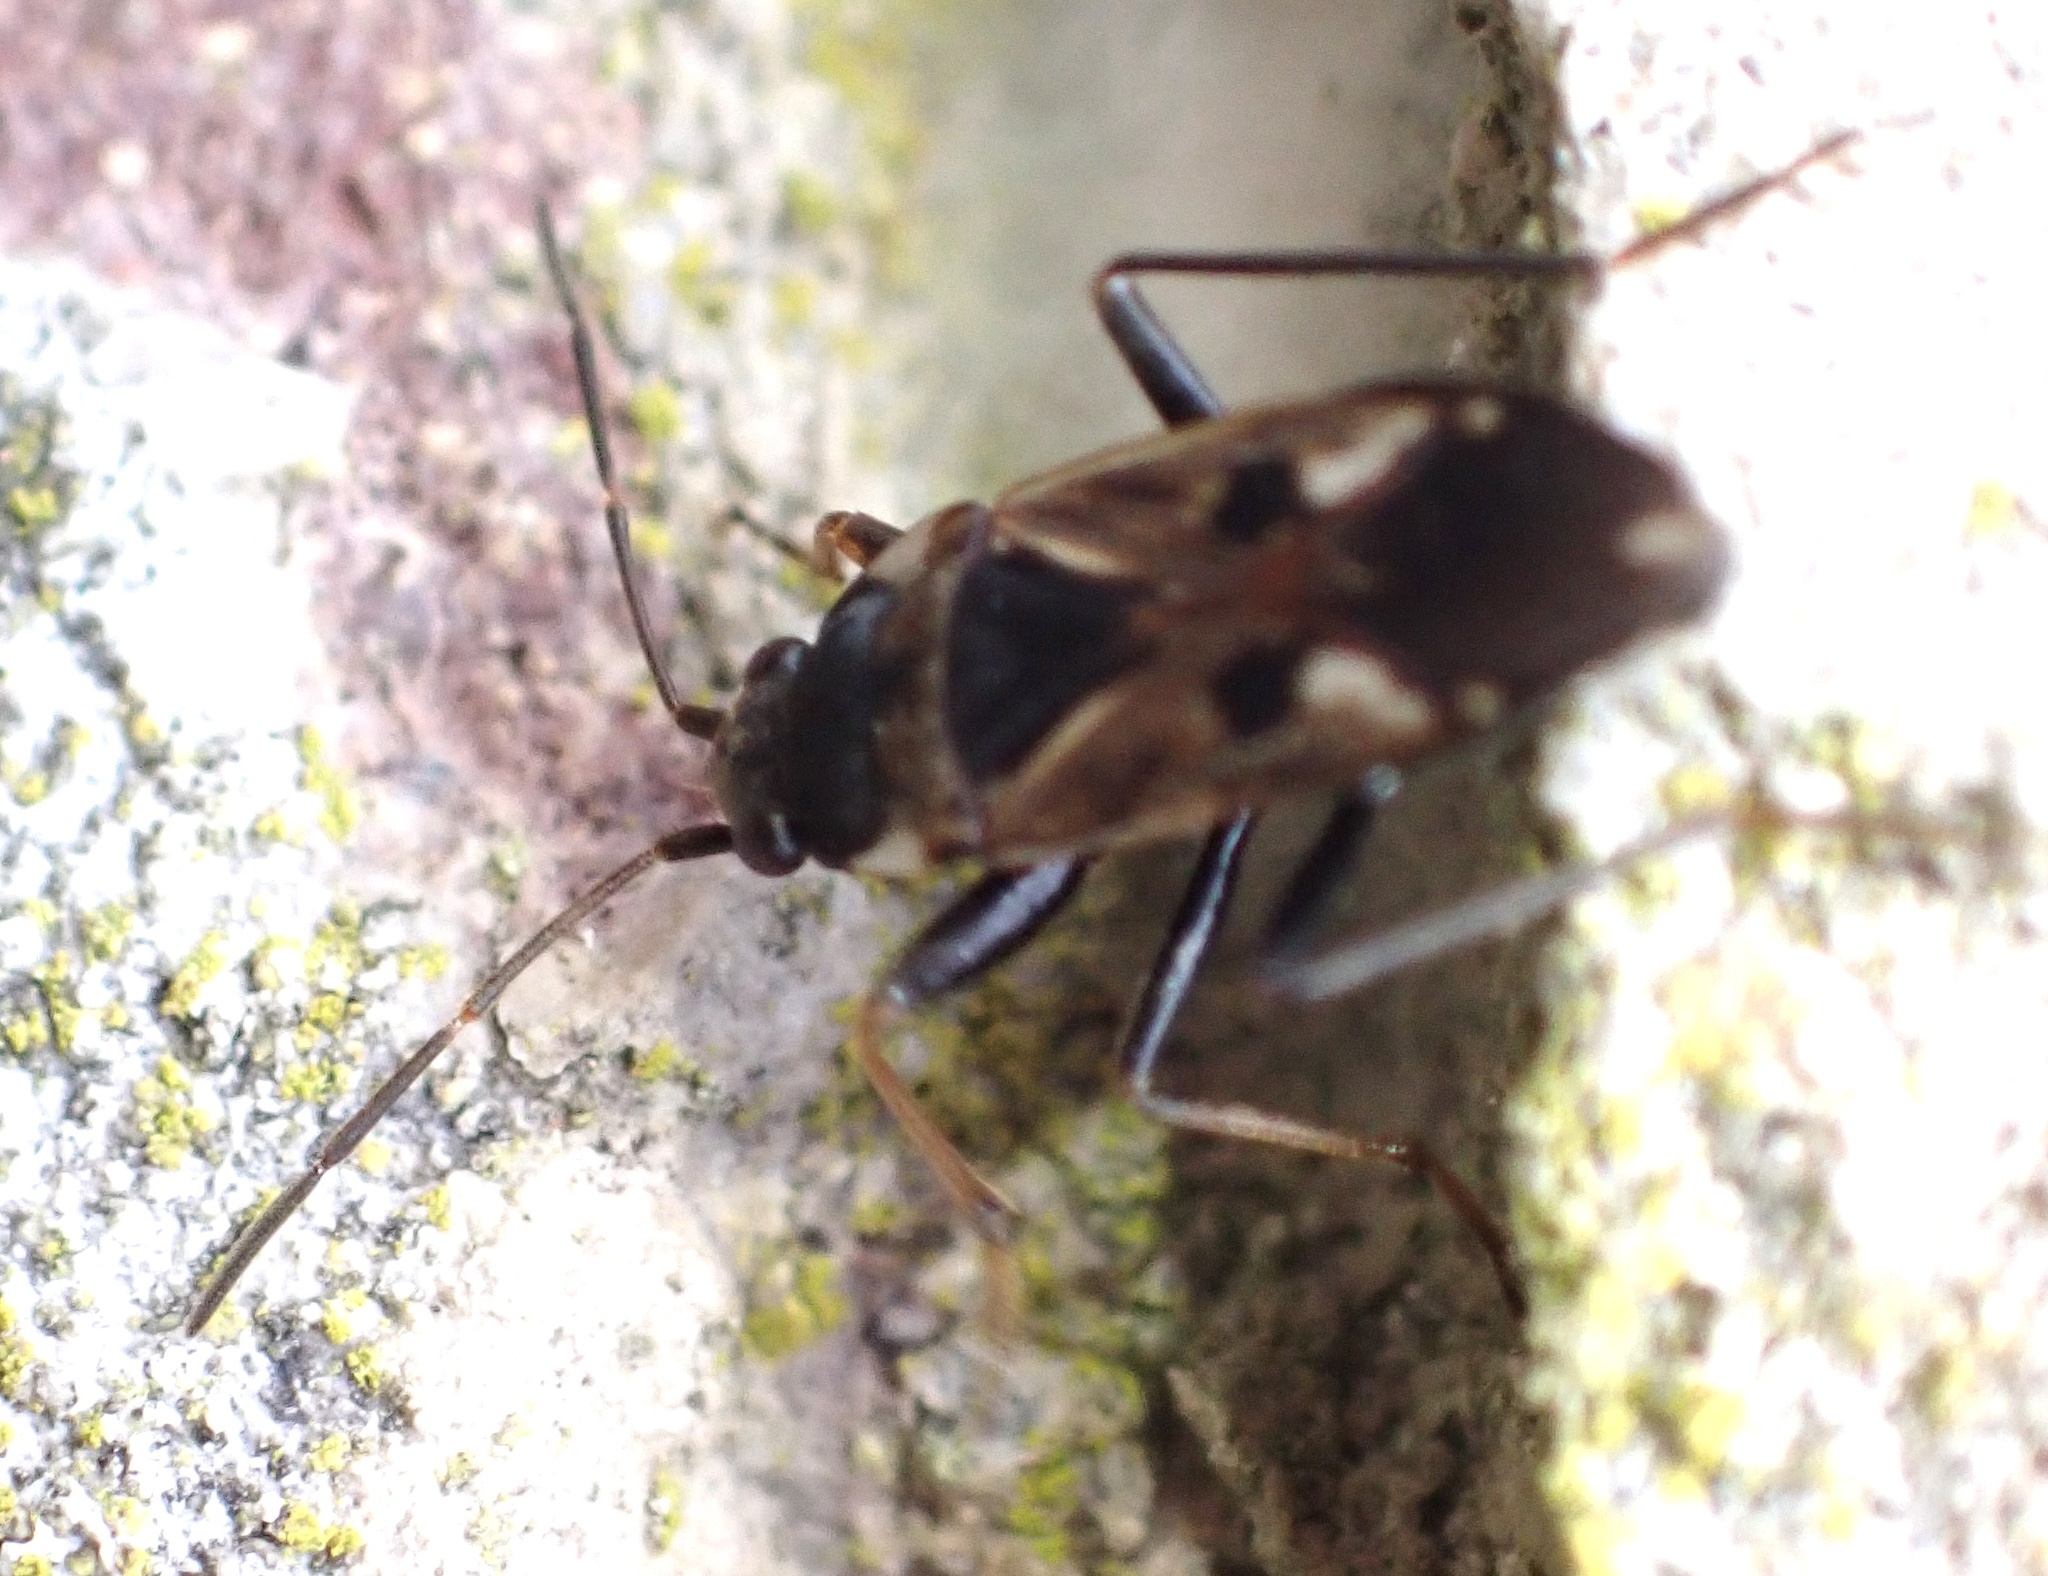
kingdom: Animalia
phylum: Arthropoda
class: Insecta
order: Hemiptera
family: Rhyparochromidae
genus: Rhyparochromus
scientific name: Rhyparochromus vulgaris
